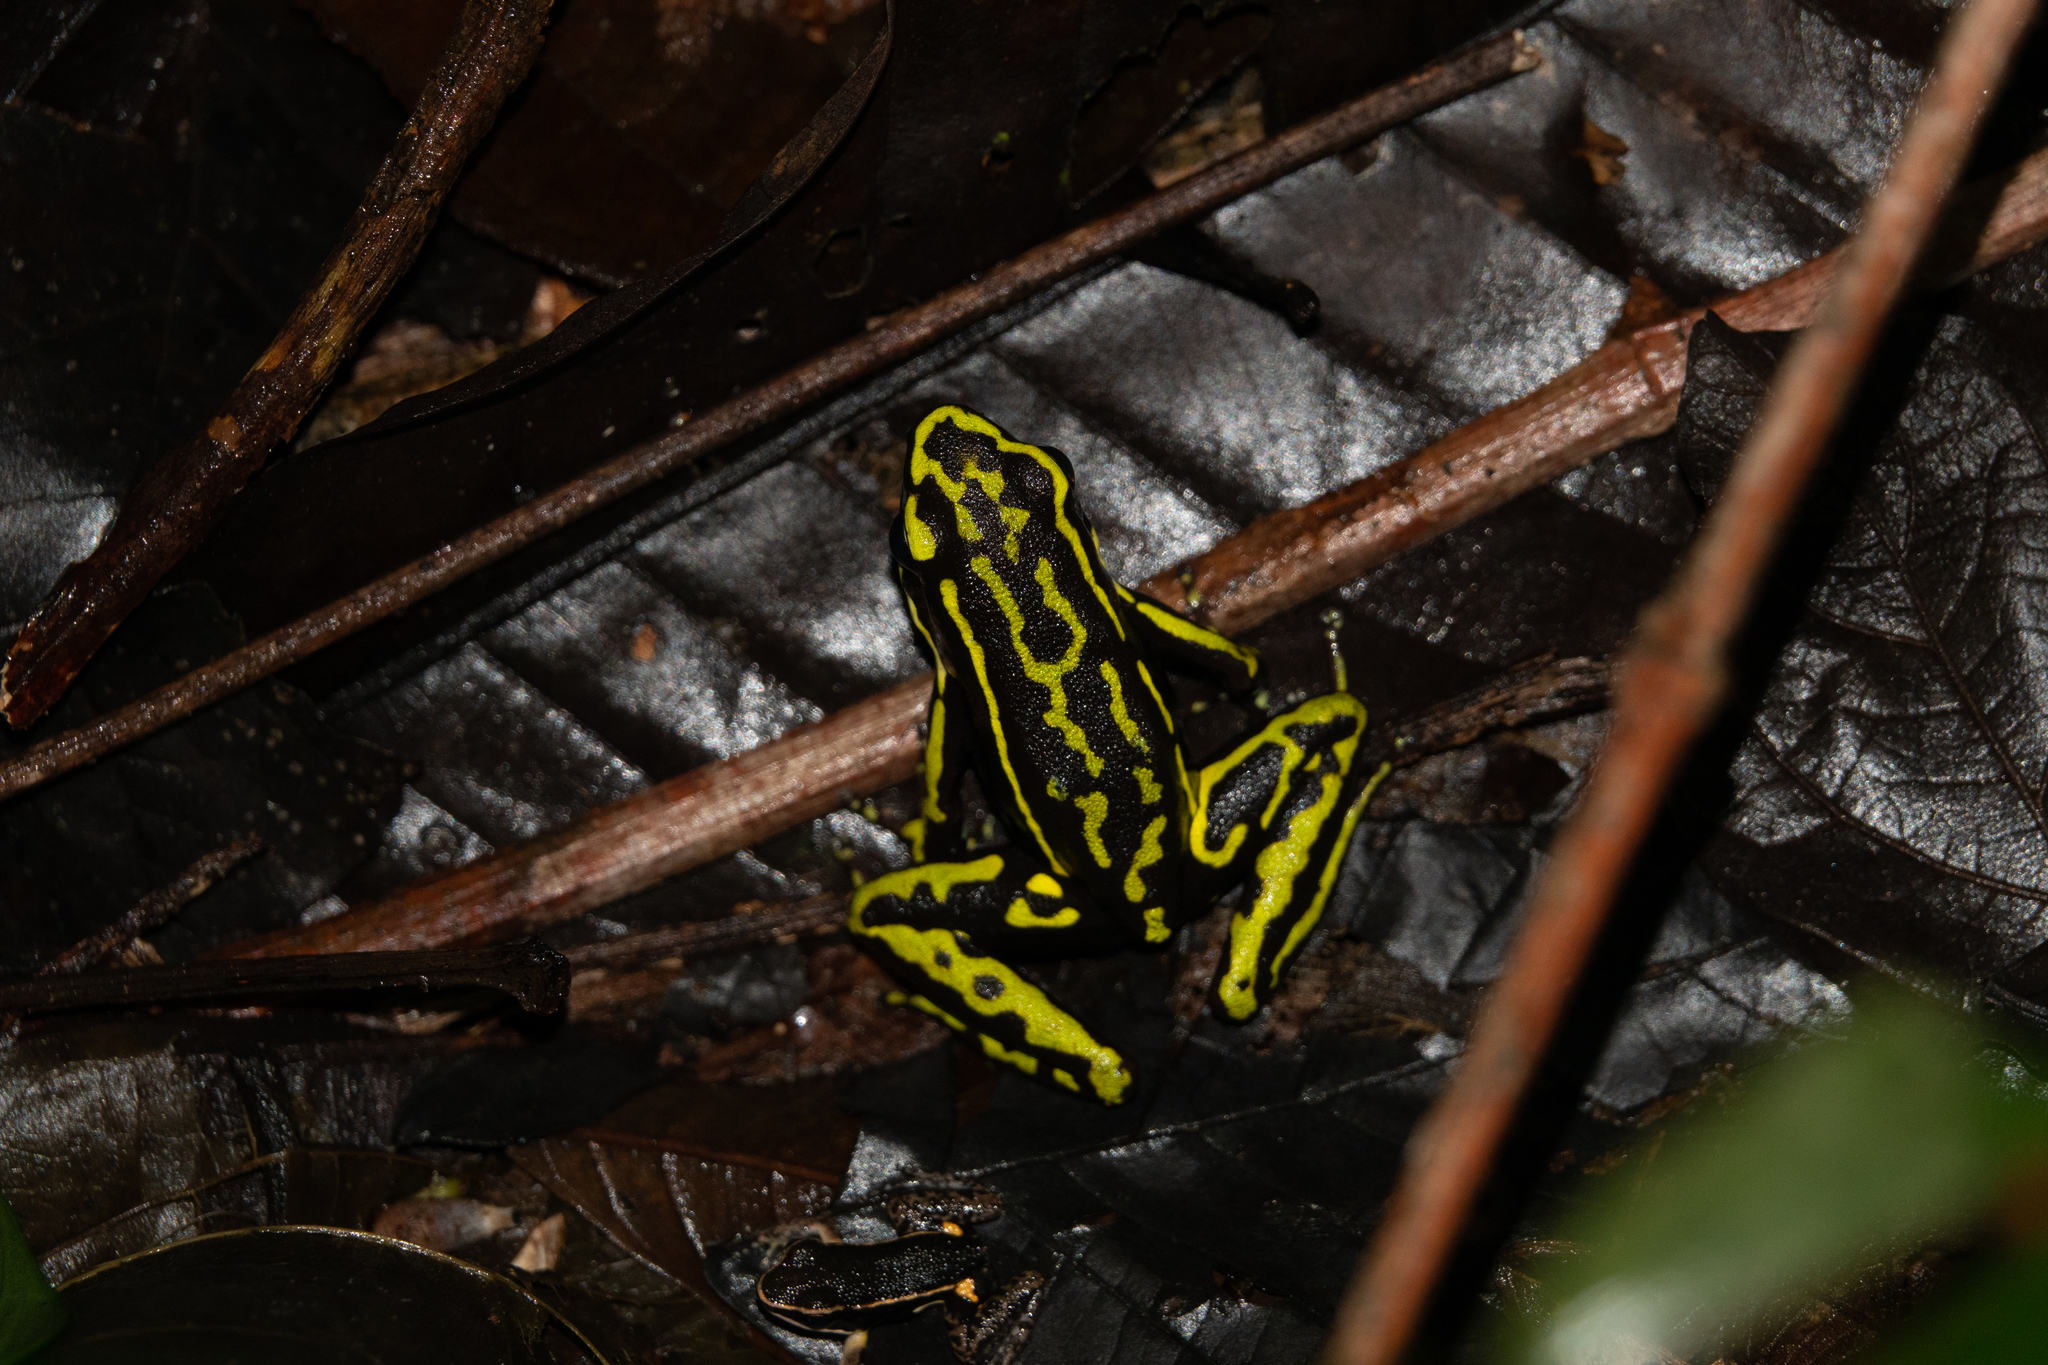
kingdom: Animalia
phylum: Chordata
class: Amphibia
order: Anura
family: Dendrobatidae
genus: Ameerega
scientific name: Ameerega trivittata
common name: Three-striped arrow-poison frog
